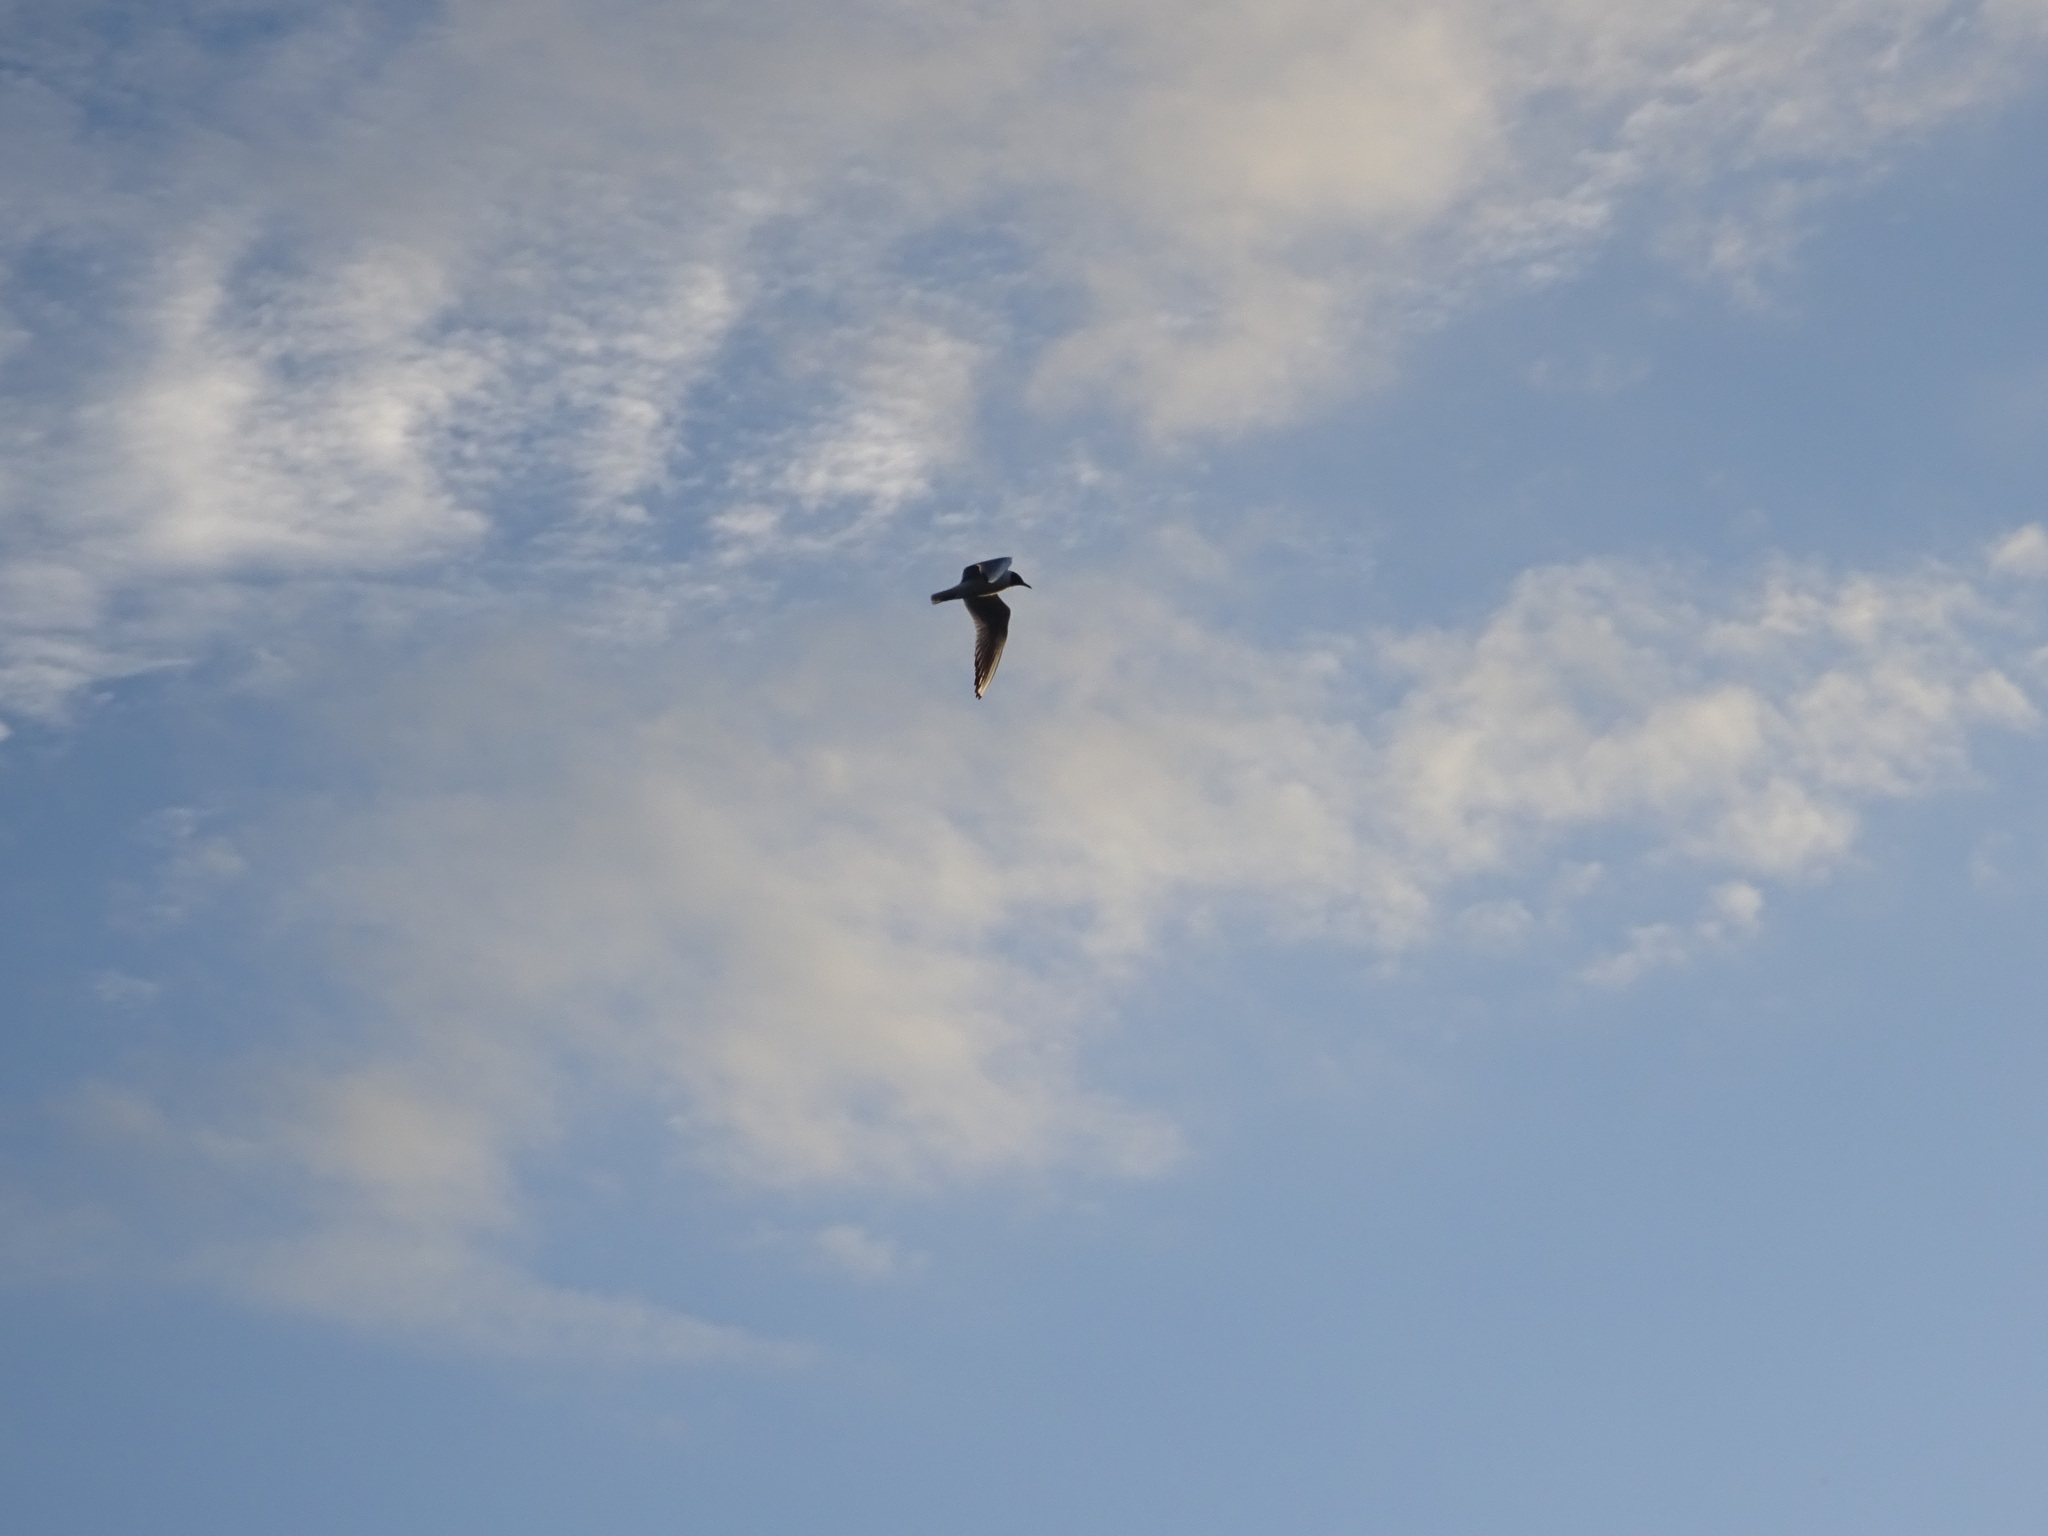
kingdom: Animalia
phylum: Chordata
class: Aves
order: Charadriiformes
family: Laridae
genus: Chroicocephalus
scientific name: Chroicocephalus ridibundus
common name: Black-headed gull
